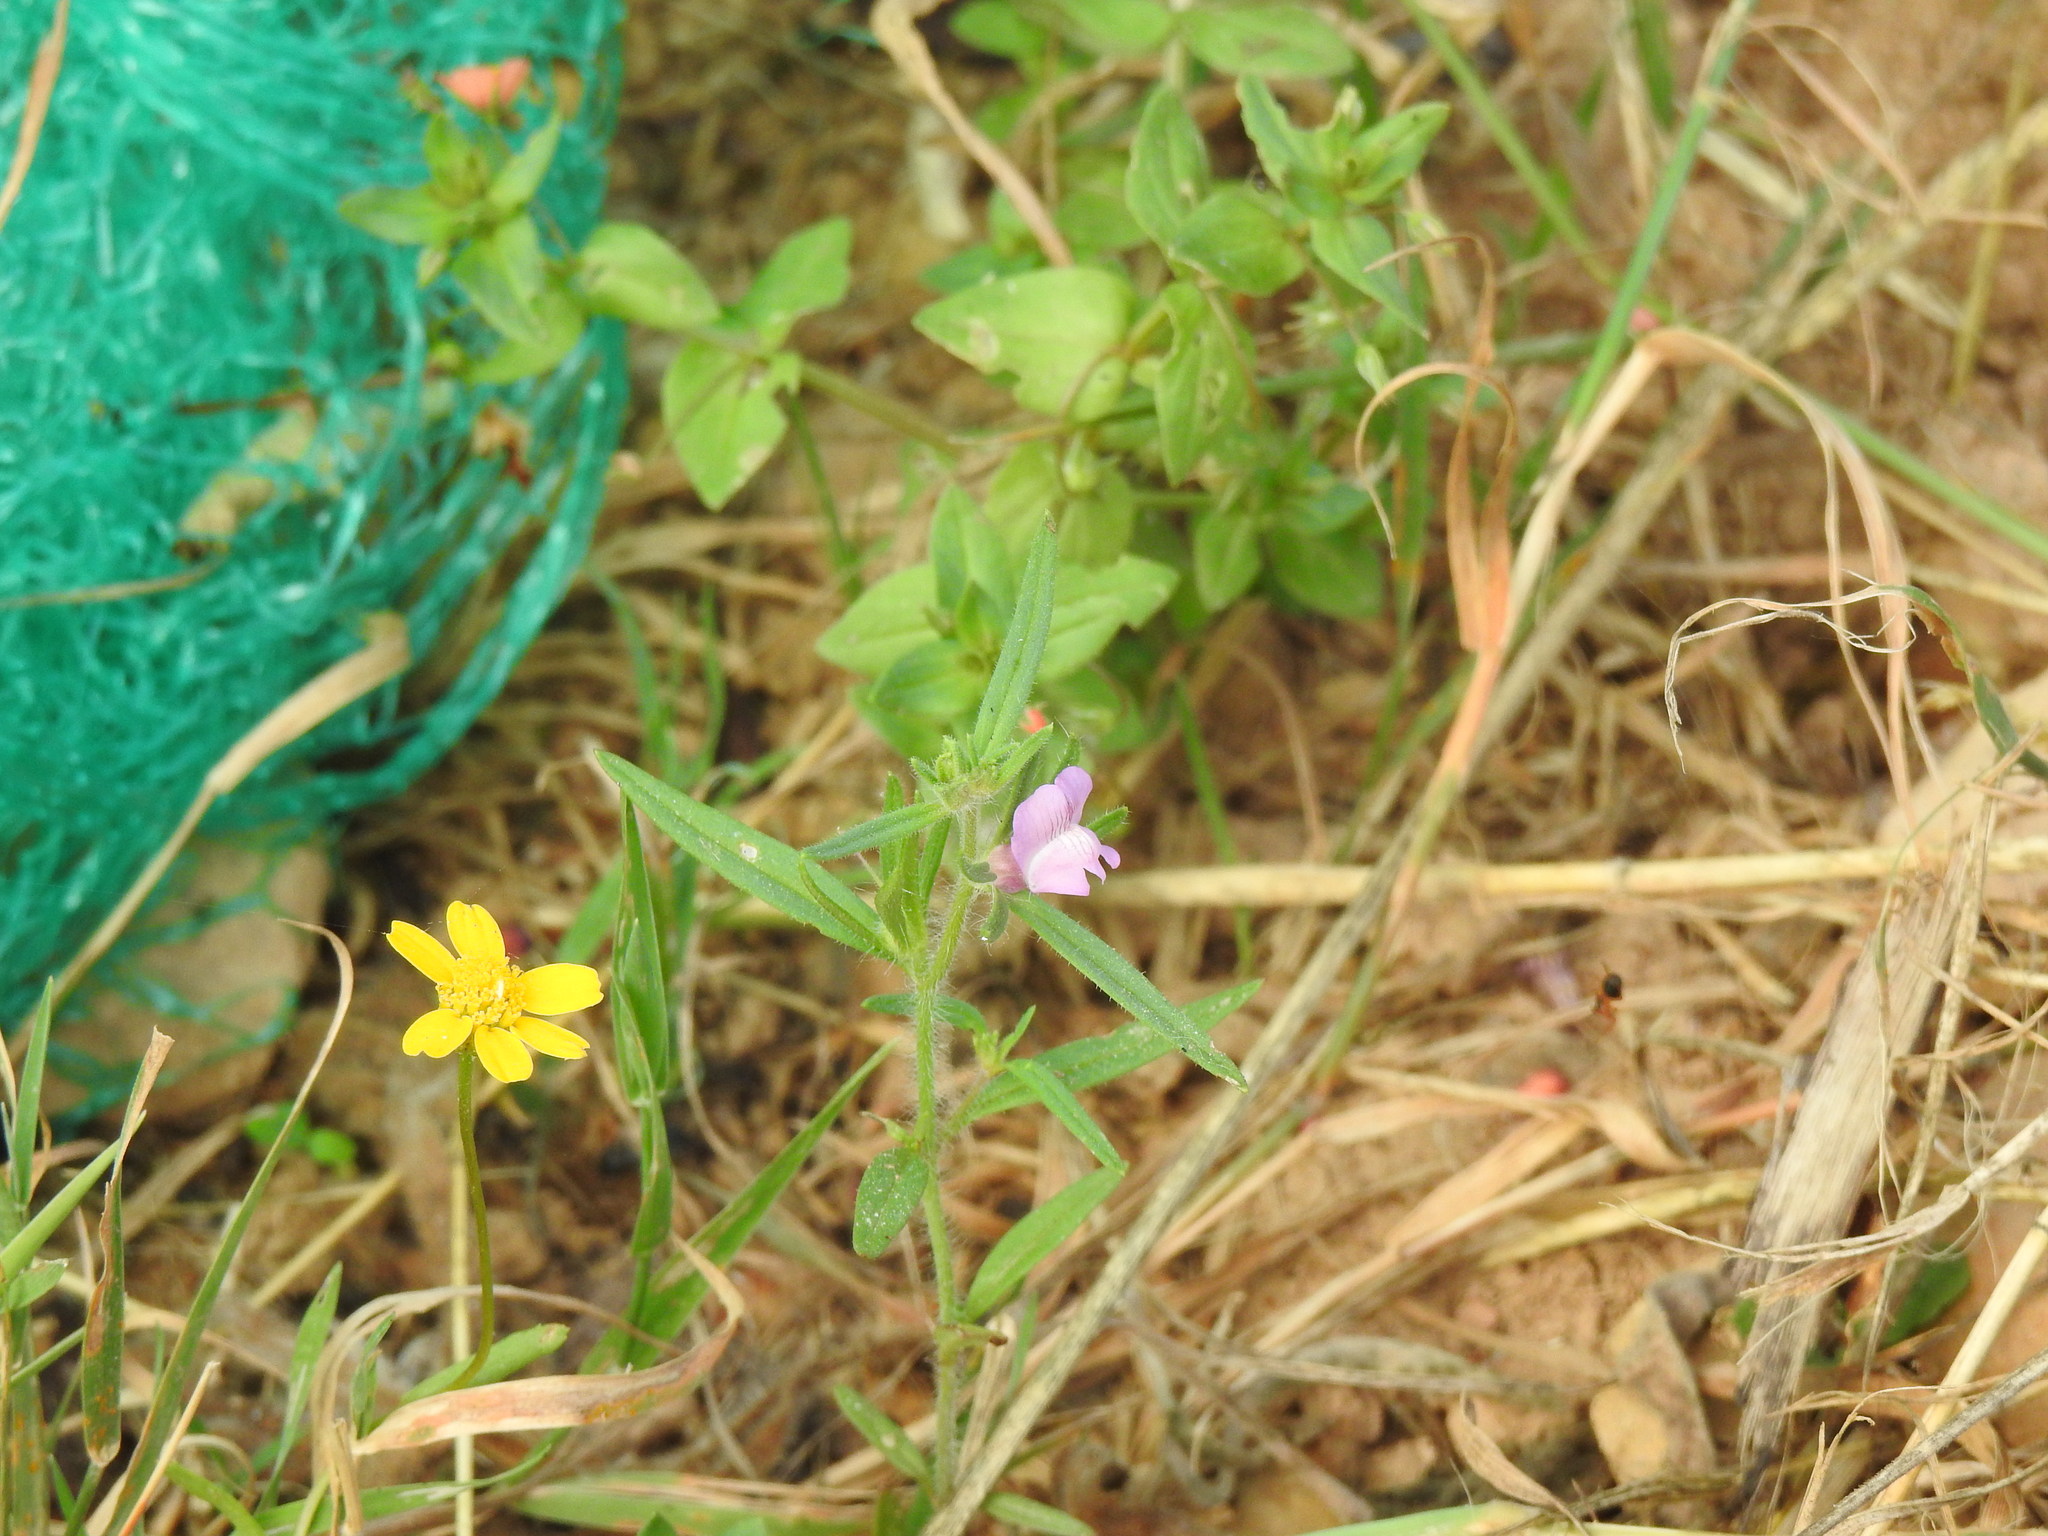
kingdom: Plantae
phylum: Tracheophyta
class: Magnoliopsida
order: Lamiales
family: Plantaginaceae
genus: Misopates
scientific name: Misopates orontium
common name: Weasel's-snout
